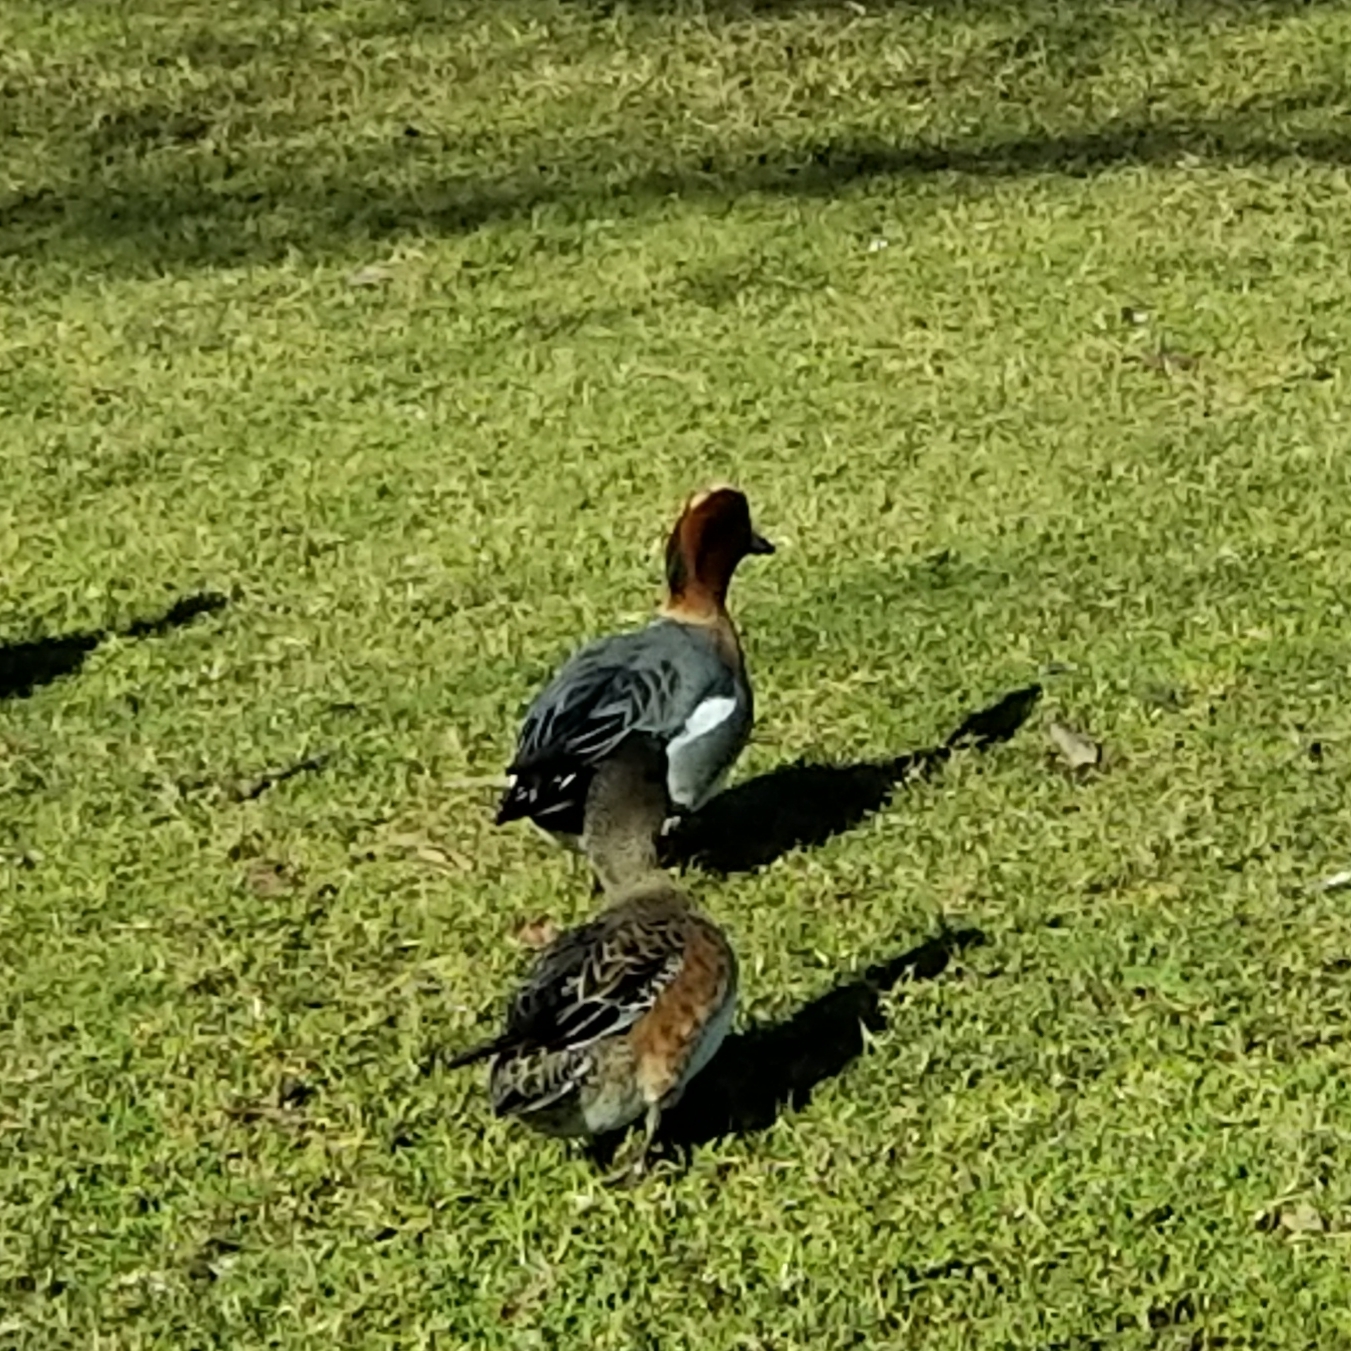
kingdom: Animalia
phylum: Chordata
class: Aves
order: Anseriformes
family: Anatidae
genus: Mareca
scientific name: Mareca penelope
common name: Eurasian wigeon
